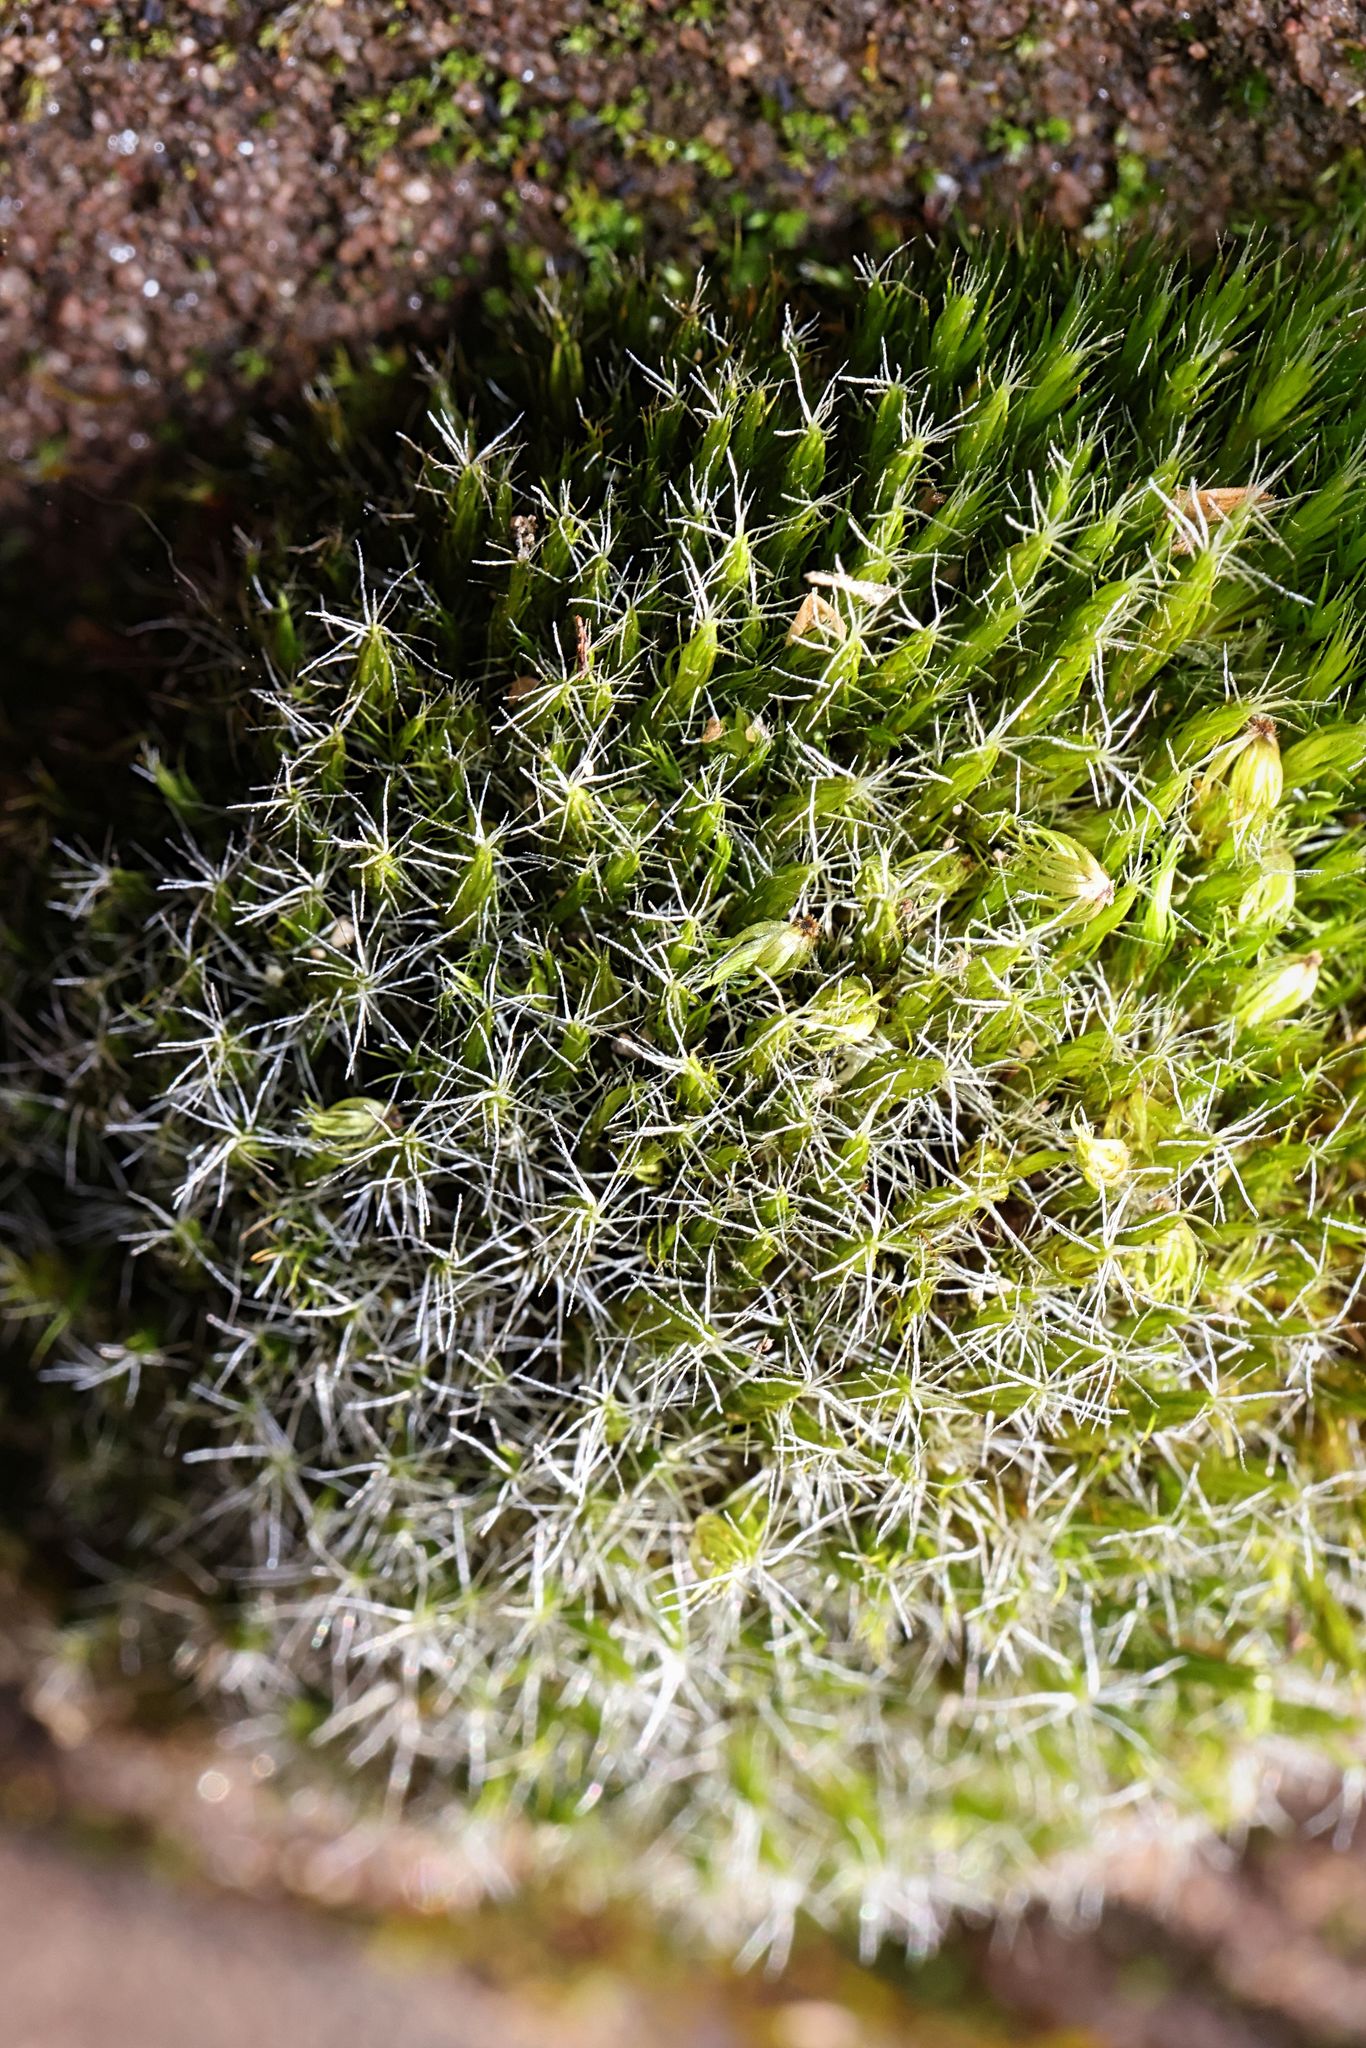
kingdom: Plantae
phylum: Bryophyta
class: Bryopsida
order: Dicranales
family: Leucobryaceae
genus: Campylopus
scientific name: Campylopus introflexus
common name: Heath star moss
